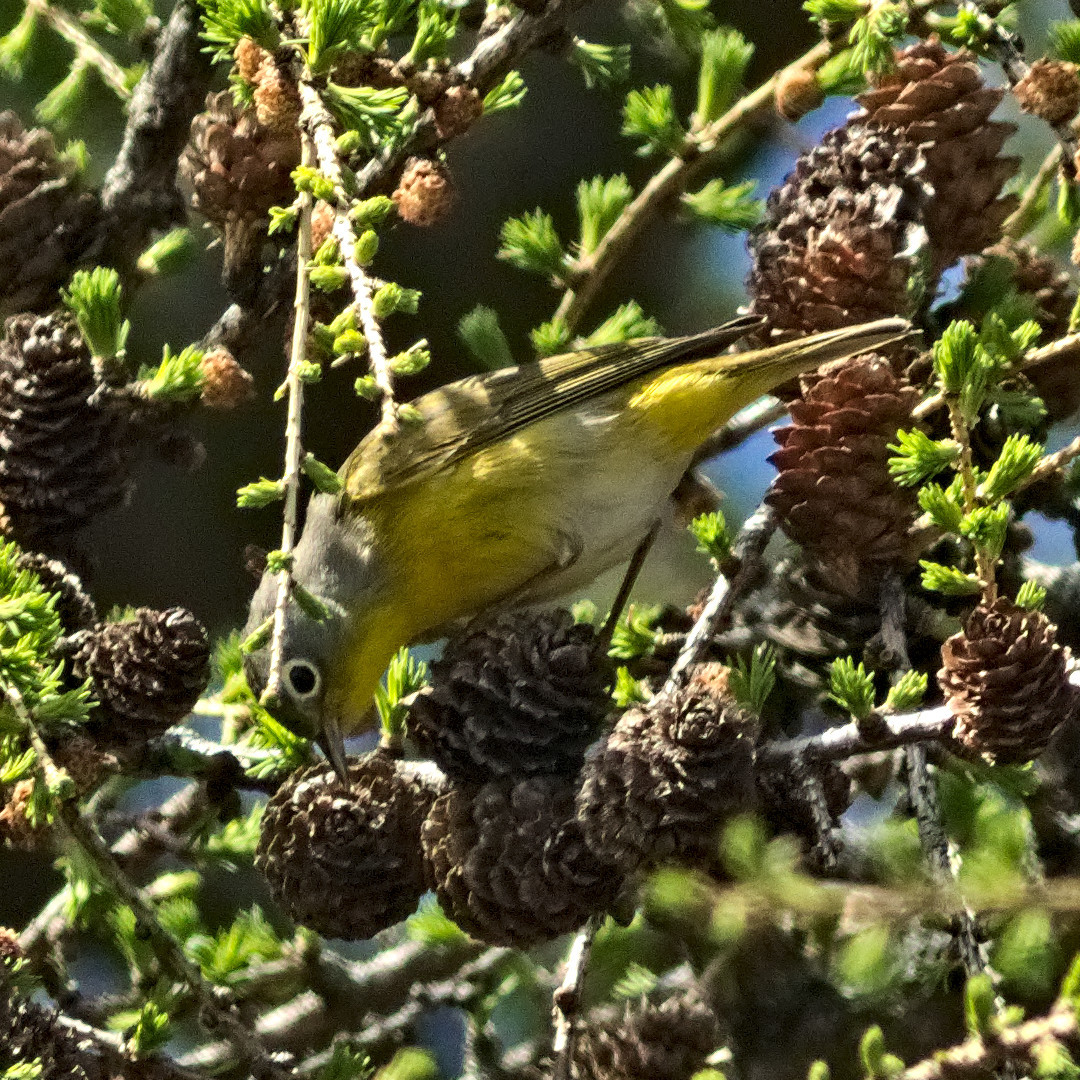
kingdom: Animalia
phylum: Chordata
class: Aves
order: Passeriformes
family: Parulidae
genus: Leiothlypis
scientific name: Leiothlypis ruficapilla
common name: Nashville warbler
